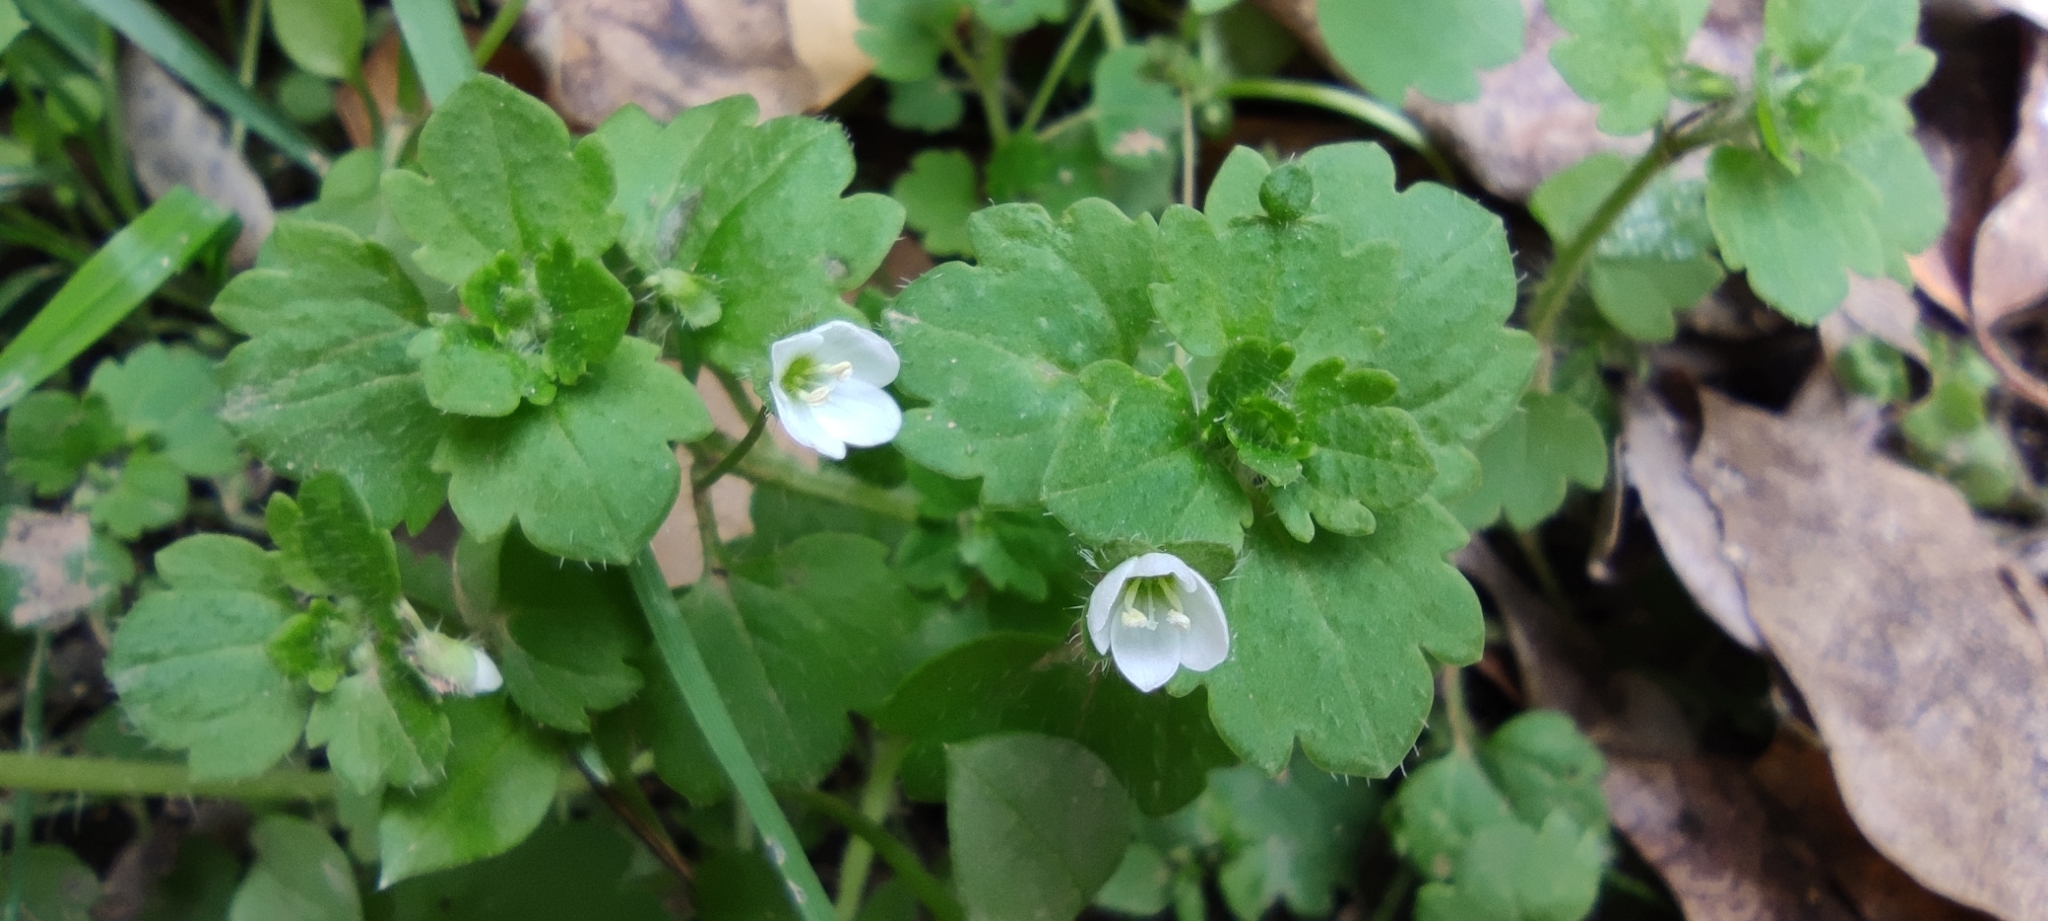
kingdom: Plantae
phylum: Tracheophyta
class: Magnoliopsida
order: Lamiales
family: Plantaginaceae
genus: Veronica
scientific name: Veronica cymbalaria
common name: Pale speedwell
